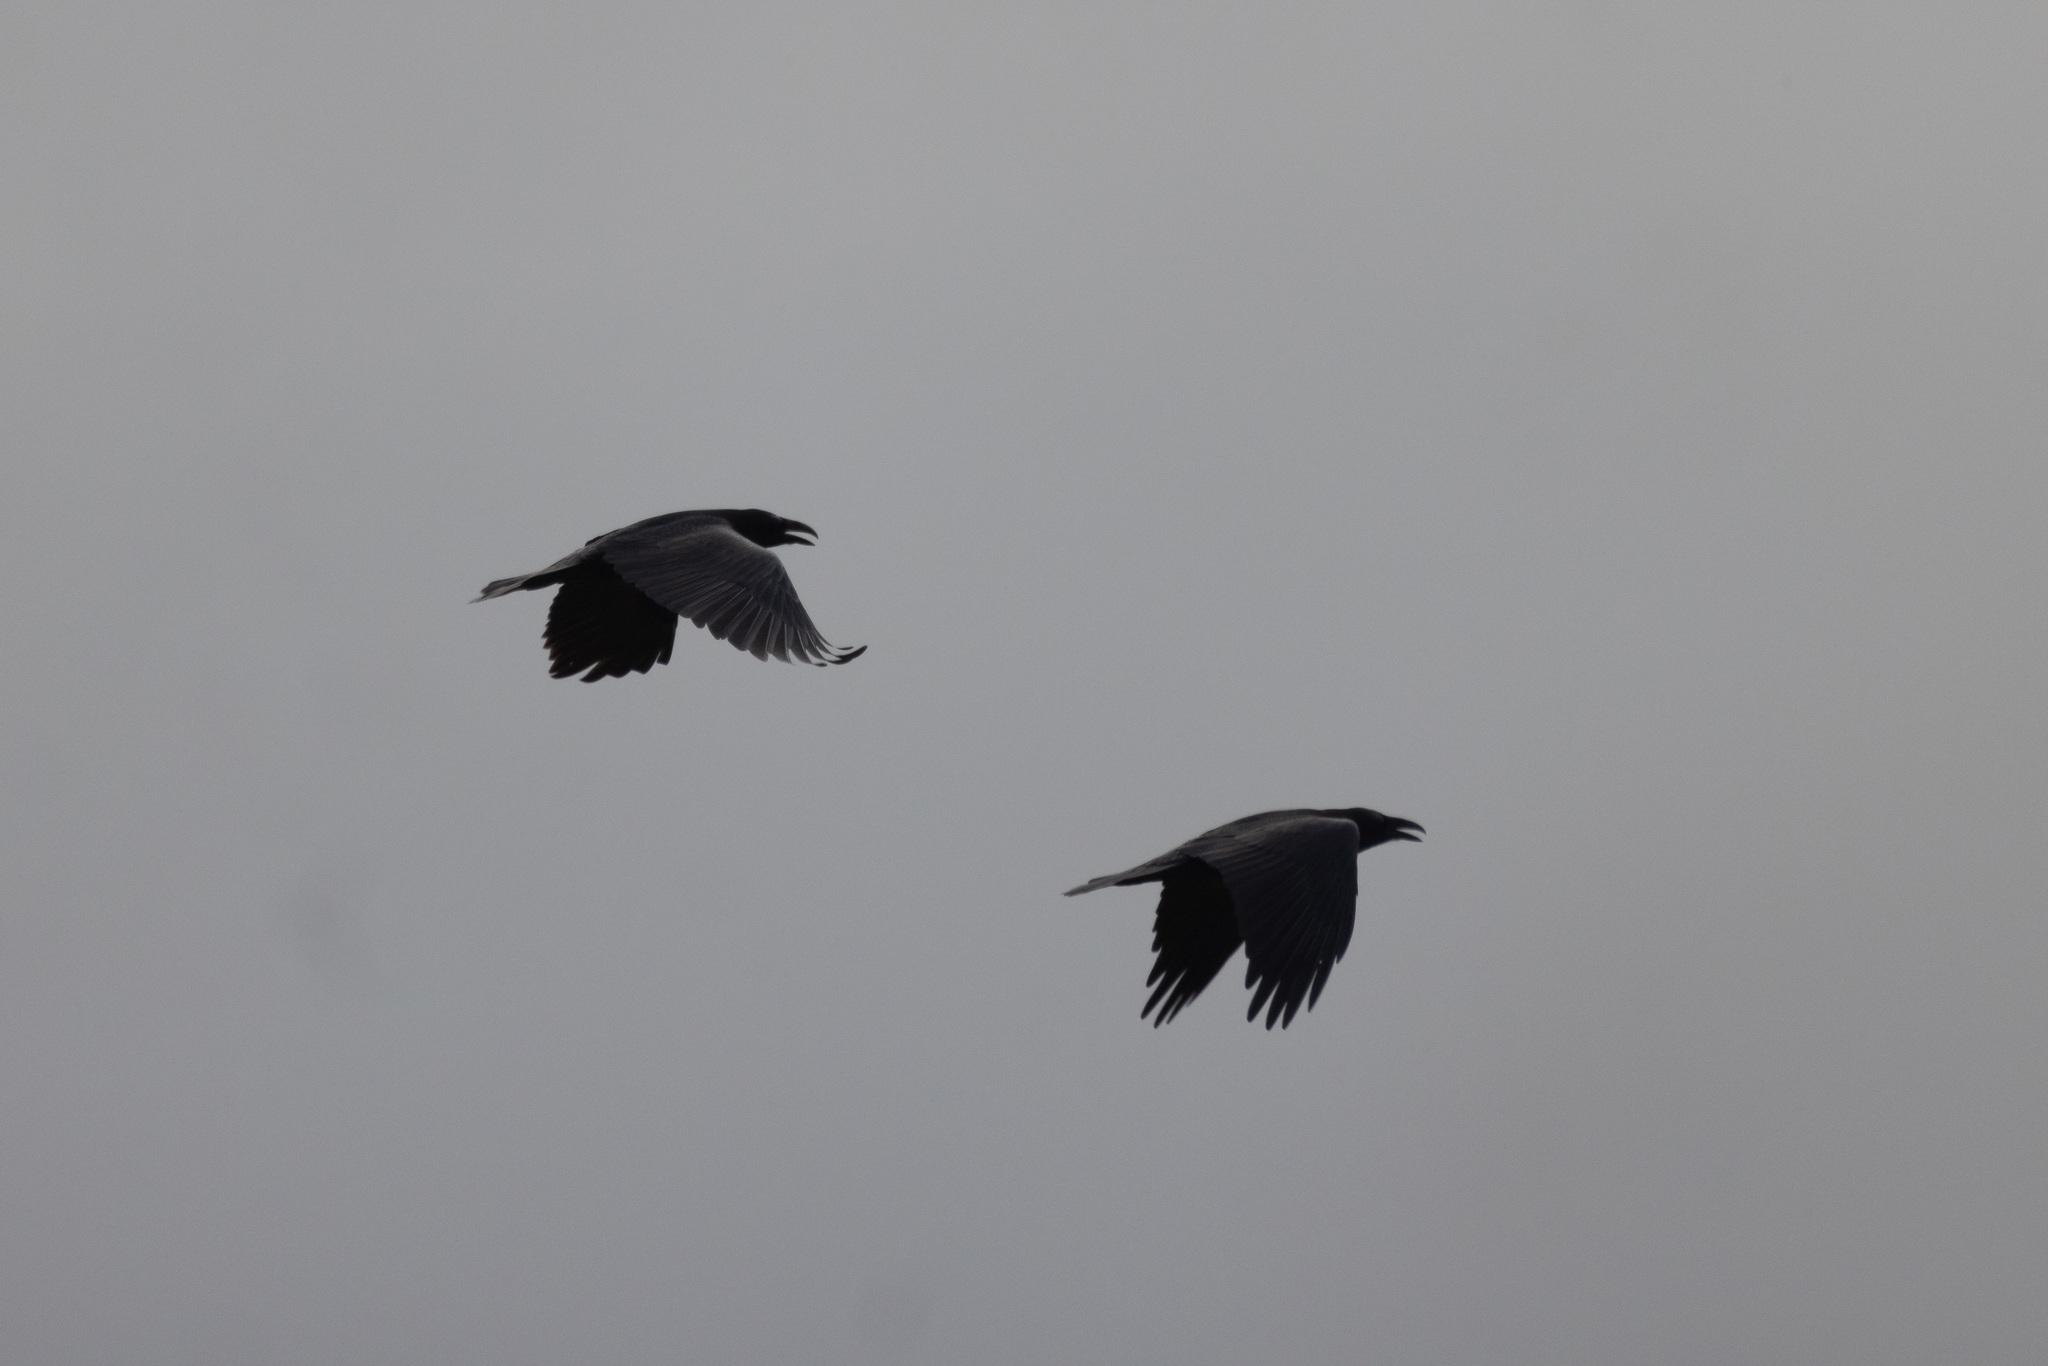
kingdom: Animalia
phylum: Chordata
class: Aves
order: Passeriformes
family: Corvidae
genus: Corvus
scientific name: Corvus corax
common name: Common raven
